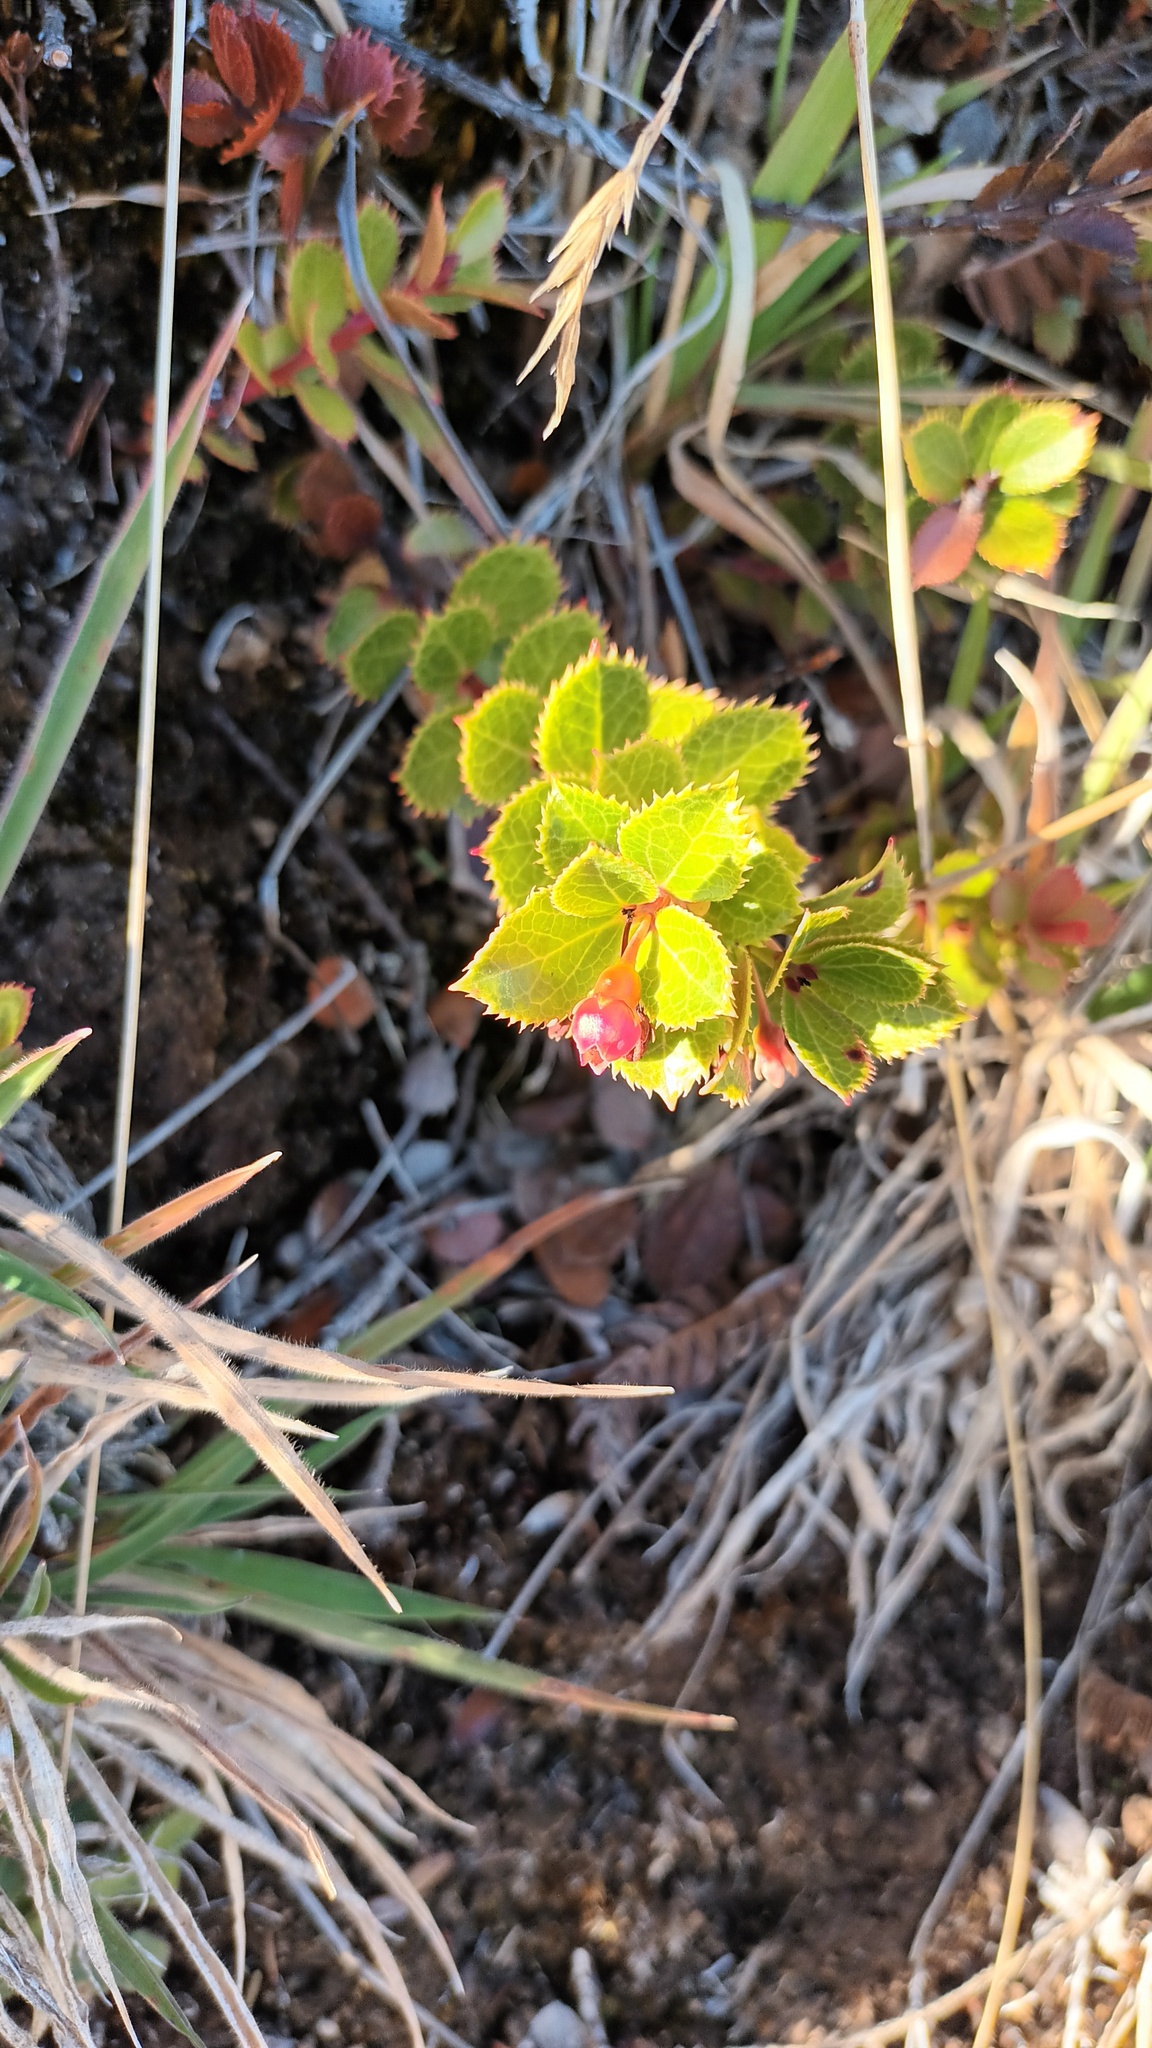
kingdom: Plantae
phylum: Tracheophyta
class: Magnoliopsida
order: Ericales
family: Ericaceae
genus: Vaccinium
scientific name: Vaccinium dentatum
